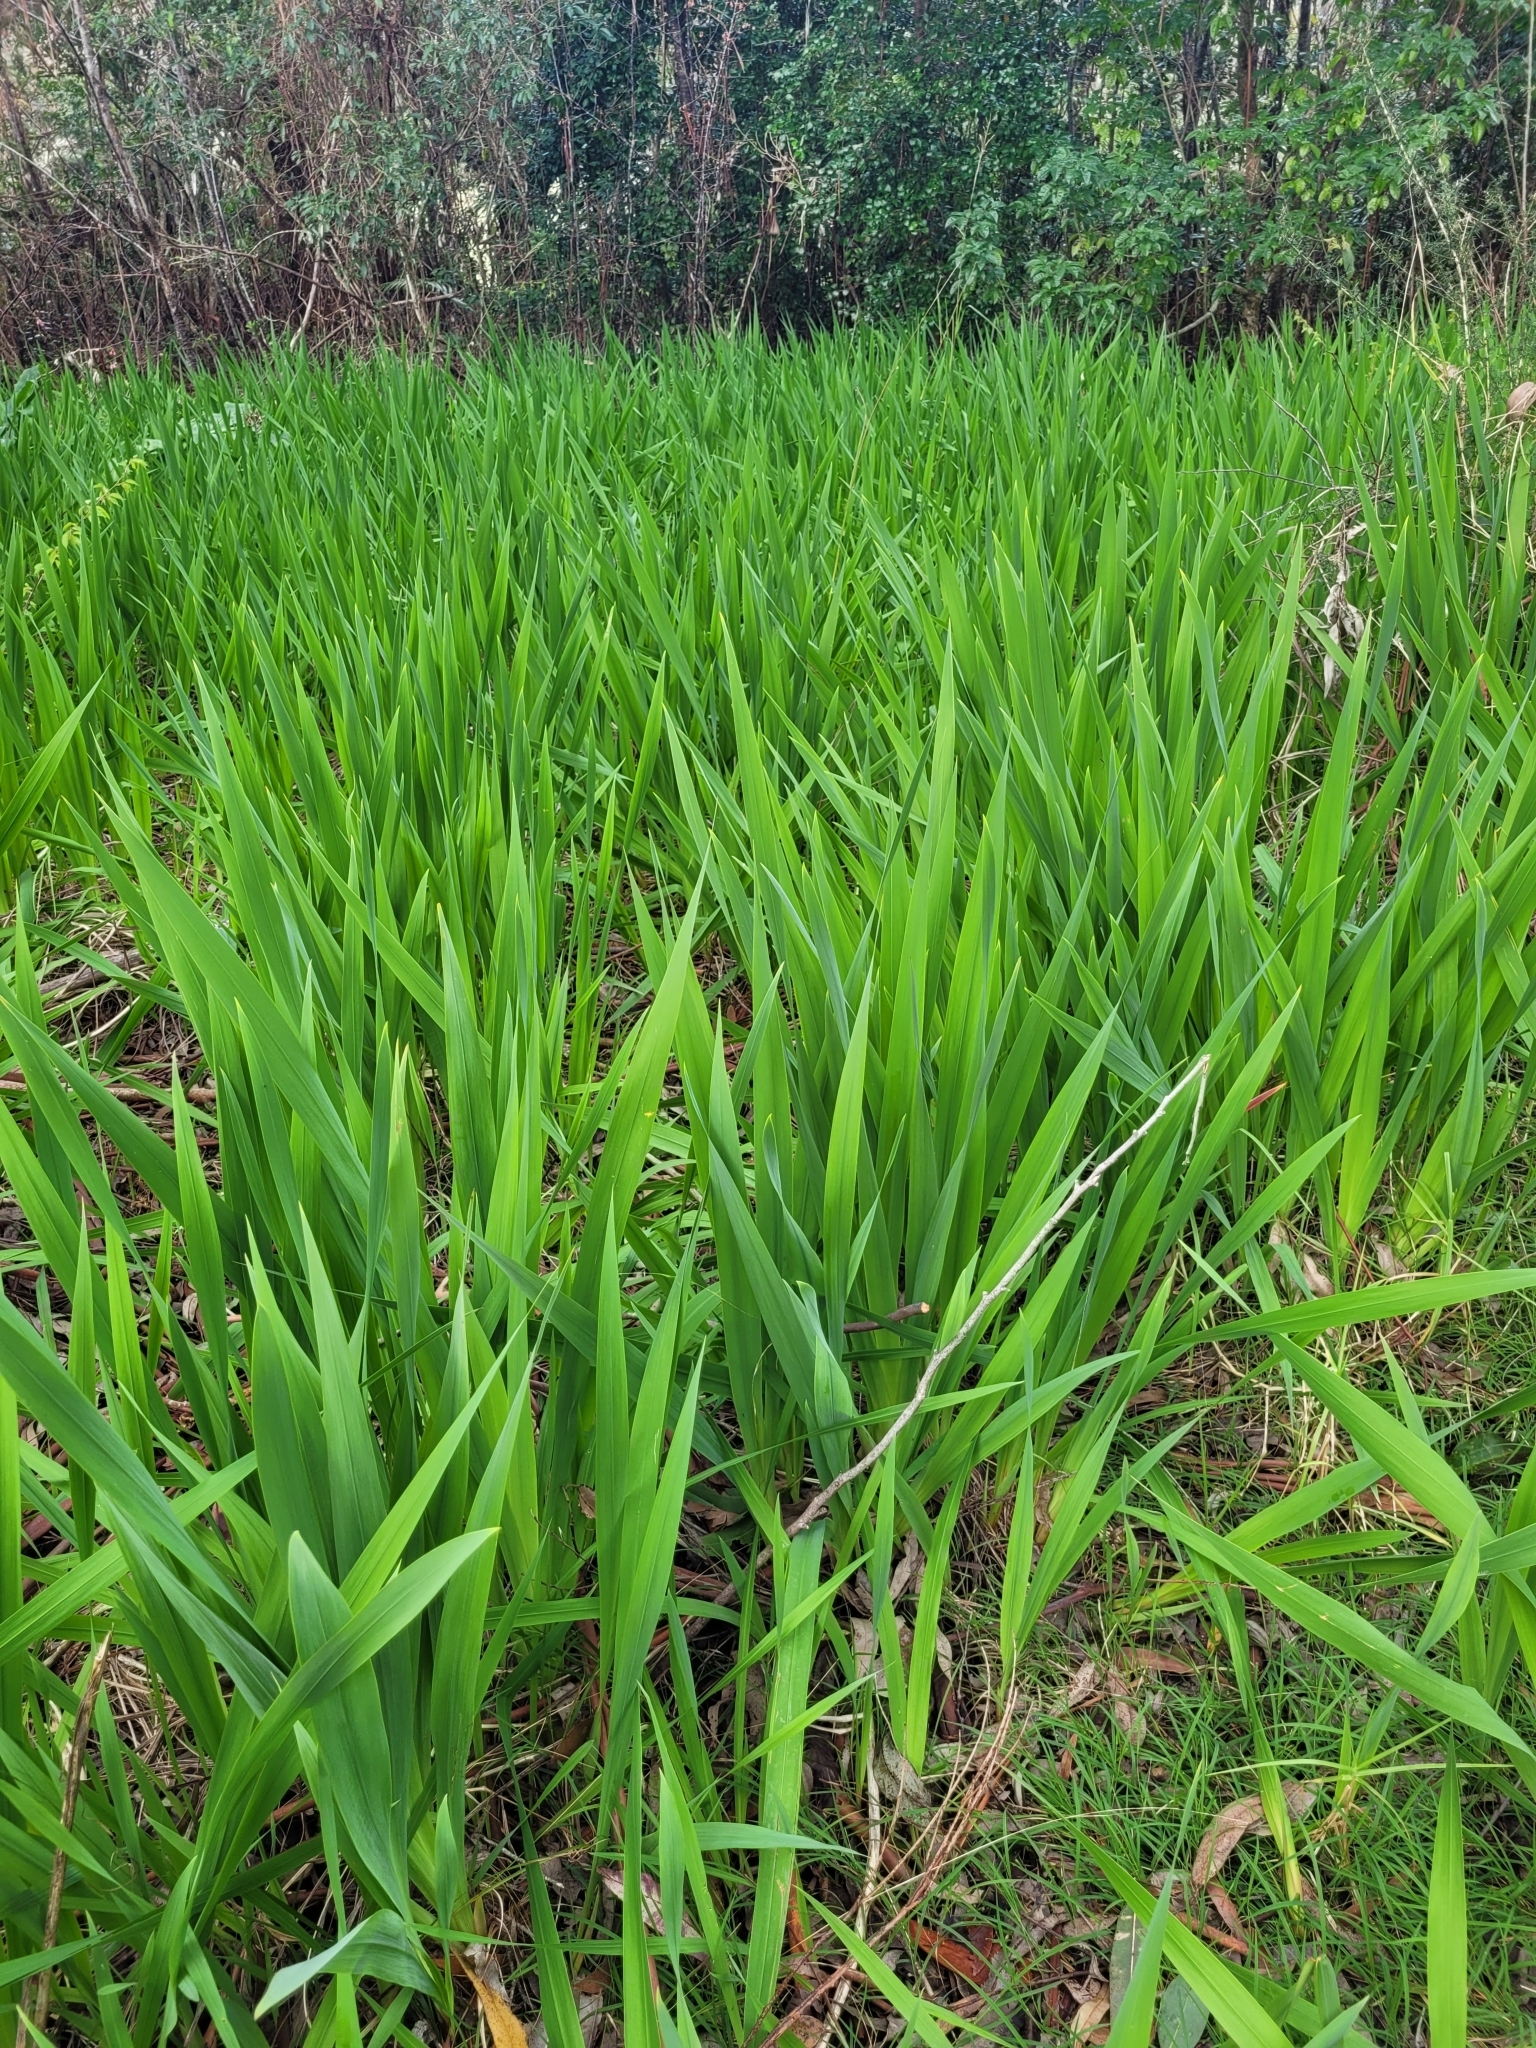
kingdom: Plantae
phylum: Tracheophyta
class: Liliopsida
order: Asparagales
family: Iridaceae
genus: Watsonia
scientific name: Watsonia meriana
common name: Bulbil bugle-lily
